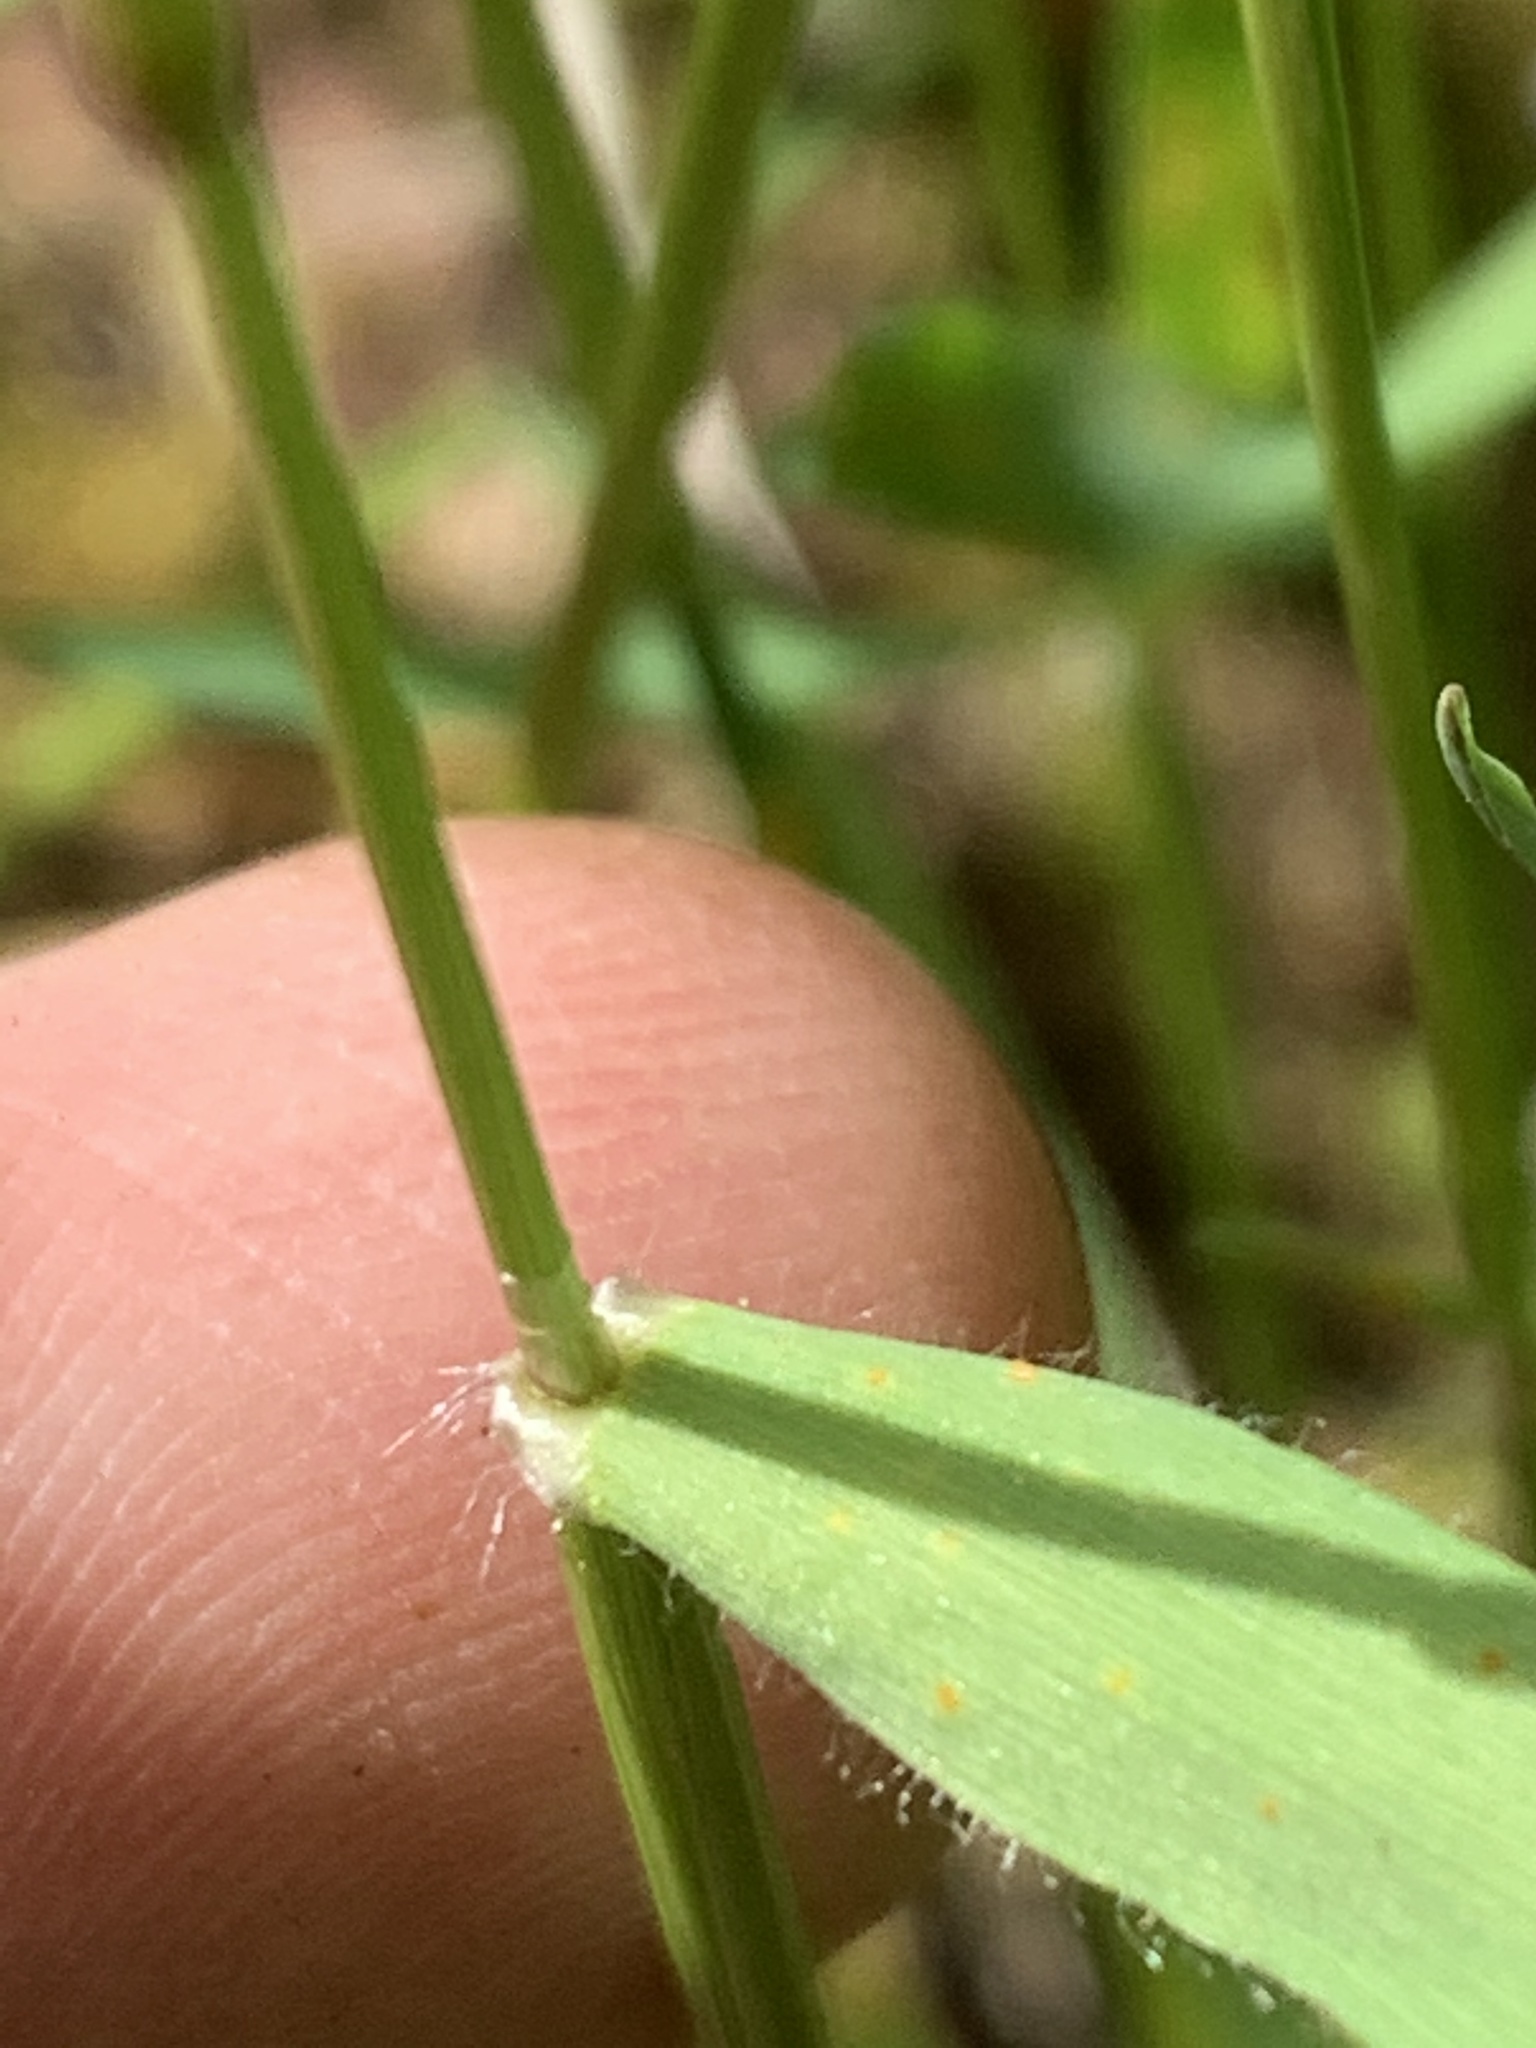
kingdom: Plantae
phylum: Tracheophyta
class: Liliopsida
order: Poales
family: Poaceae
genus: Anthoxanthum
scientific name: Anthoxanthum odoratum
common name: Sweet vernalgrass
